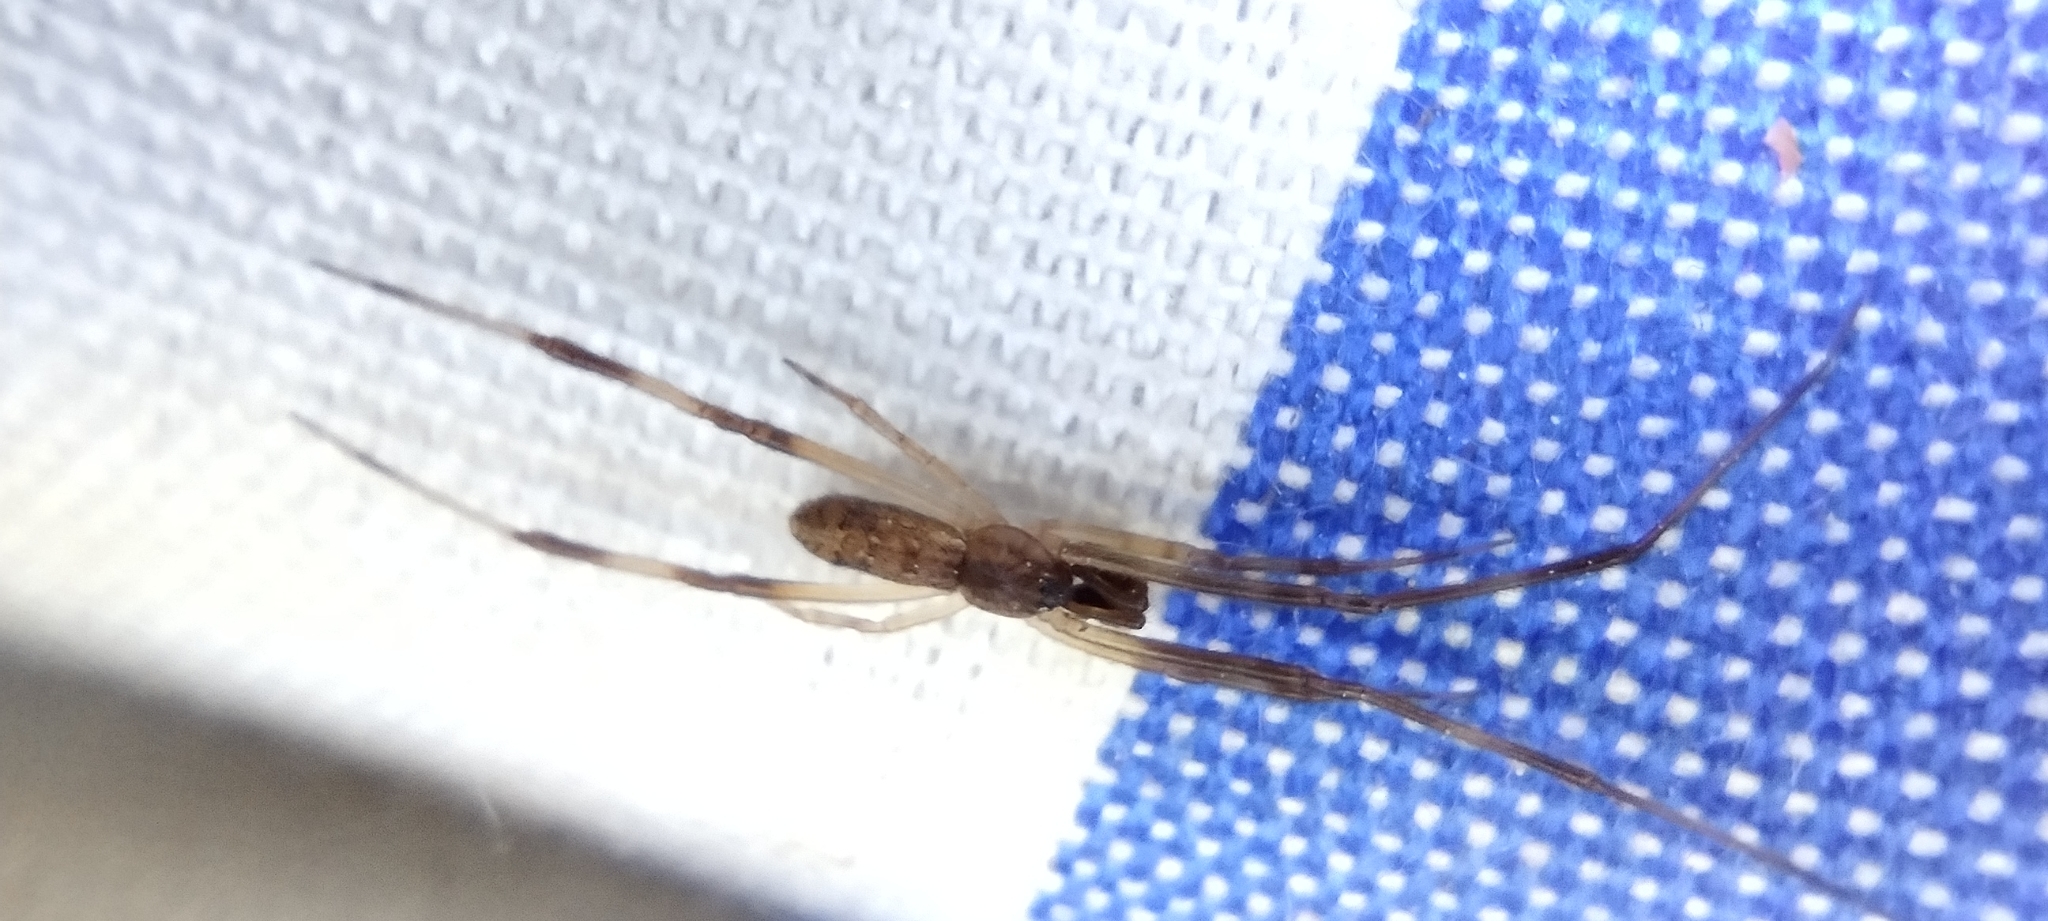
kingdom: Animalia
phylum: Arthropoda
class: Arachnida
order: Araneae
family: Theridiidae
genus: Episinus
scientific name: Episinus angulatus
